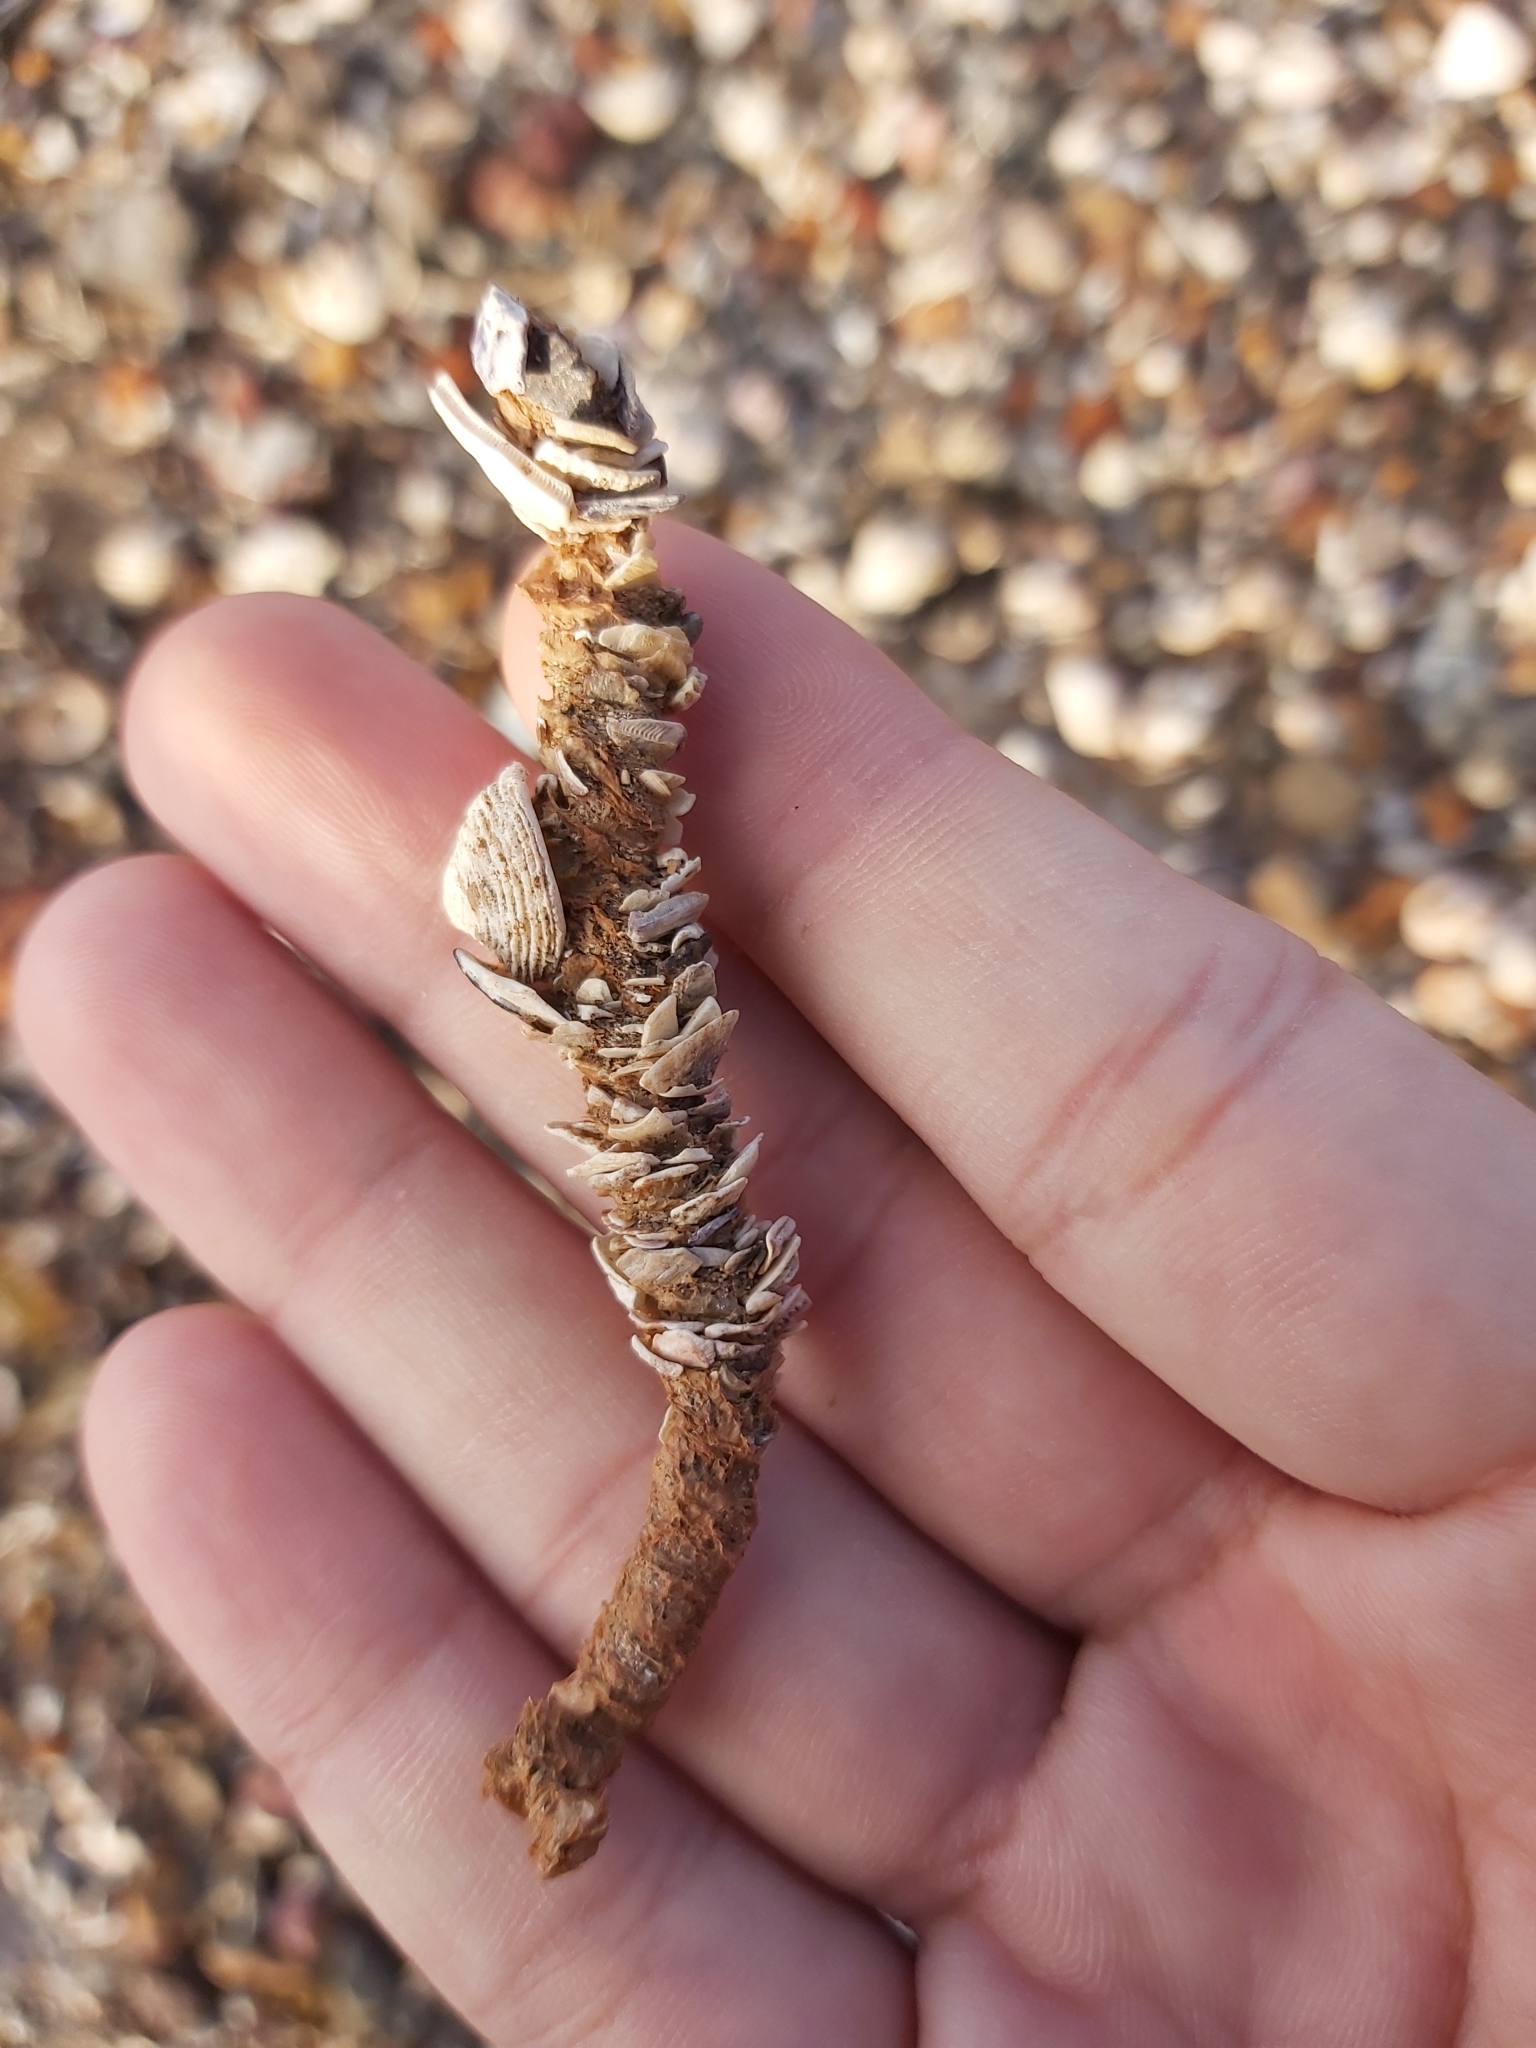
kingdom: Animalia
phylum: Annelida
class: Polychaeta
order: Eunicida
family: Onuphidae
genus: Diopatra
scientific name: Diopatra dentata
